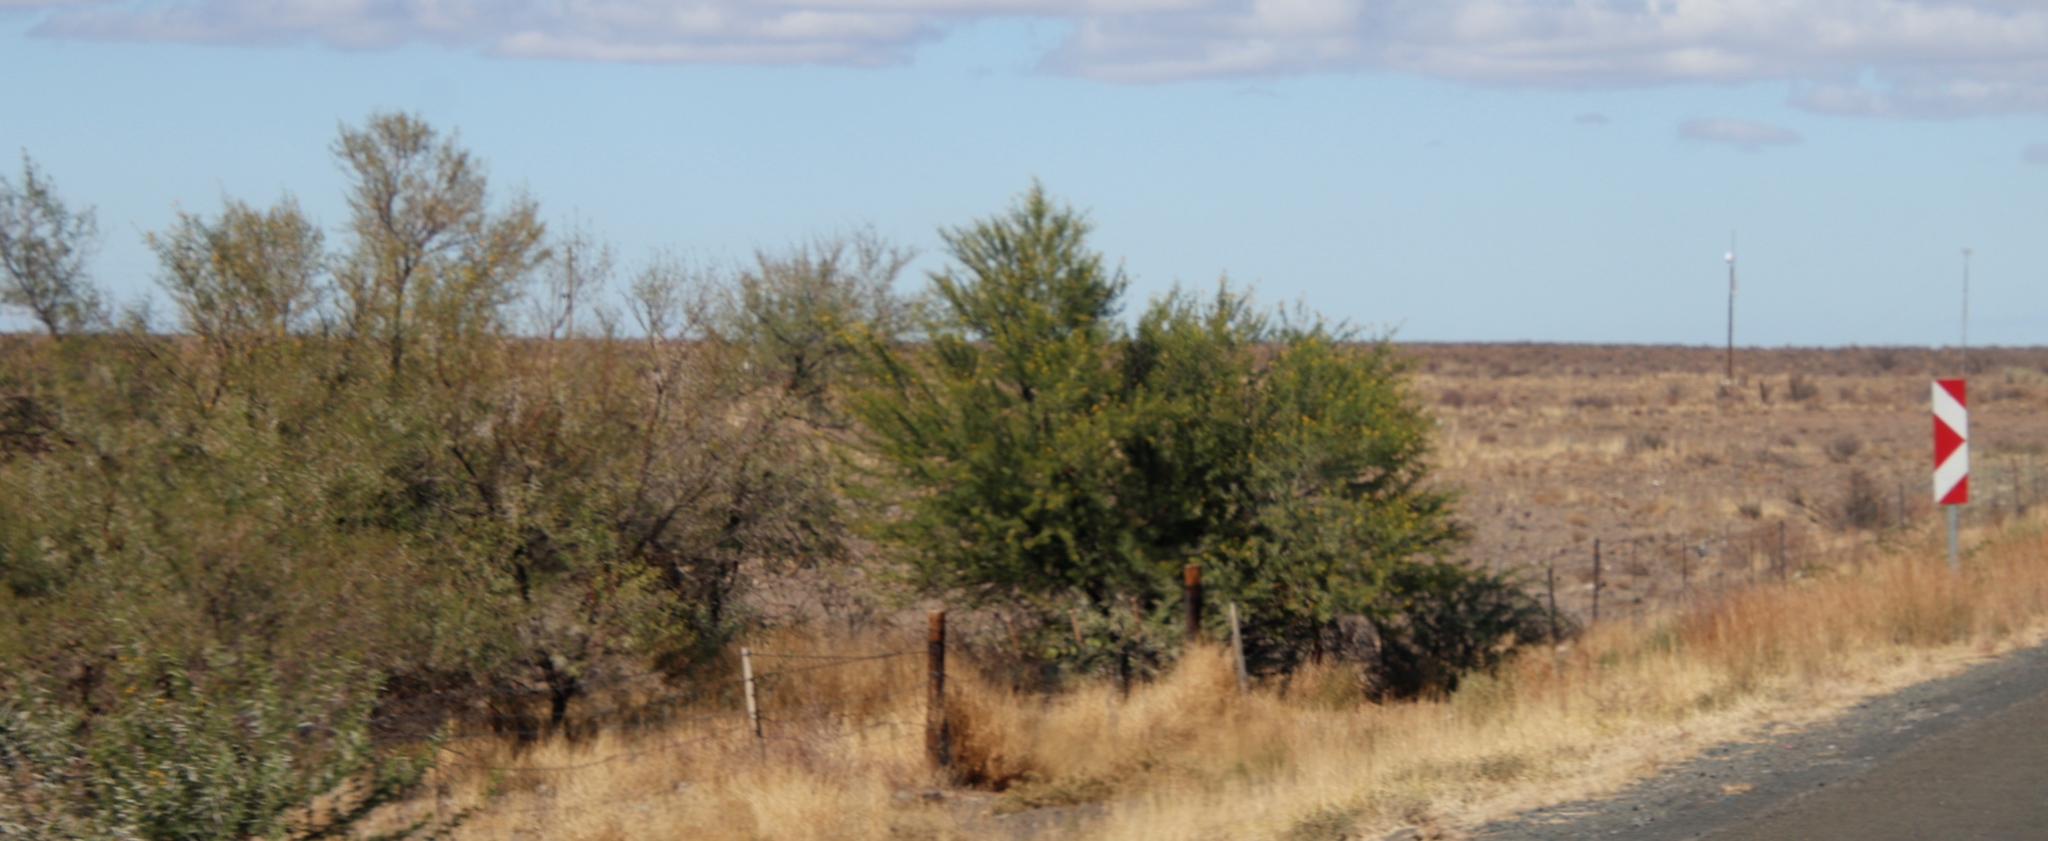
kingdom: Plantae
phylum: Tracheophyta
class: Magnoliopsida
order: Fabales
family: Fabaceae
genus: Vachellia
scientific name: Vachellia karroo
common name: Sweet thorn
